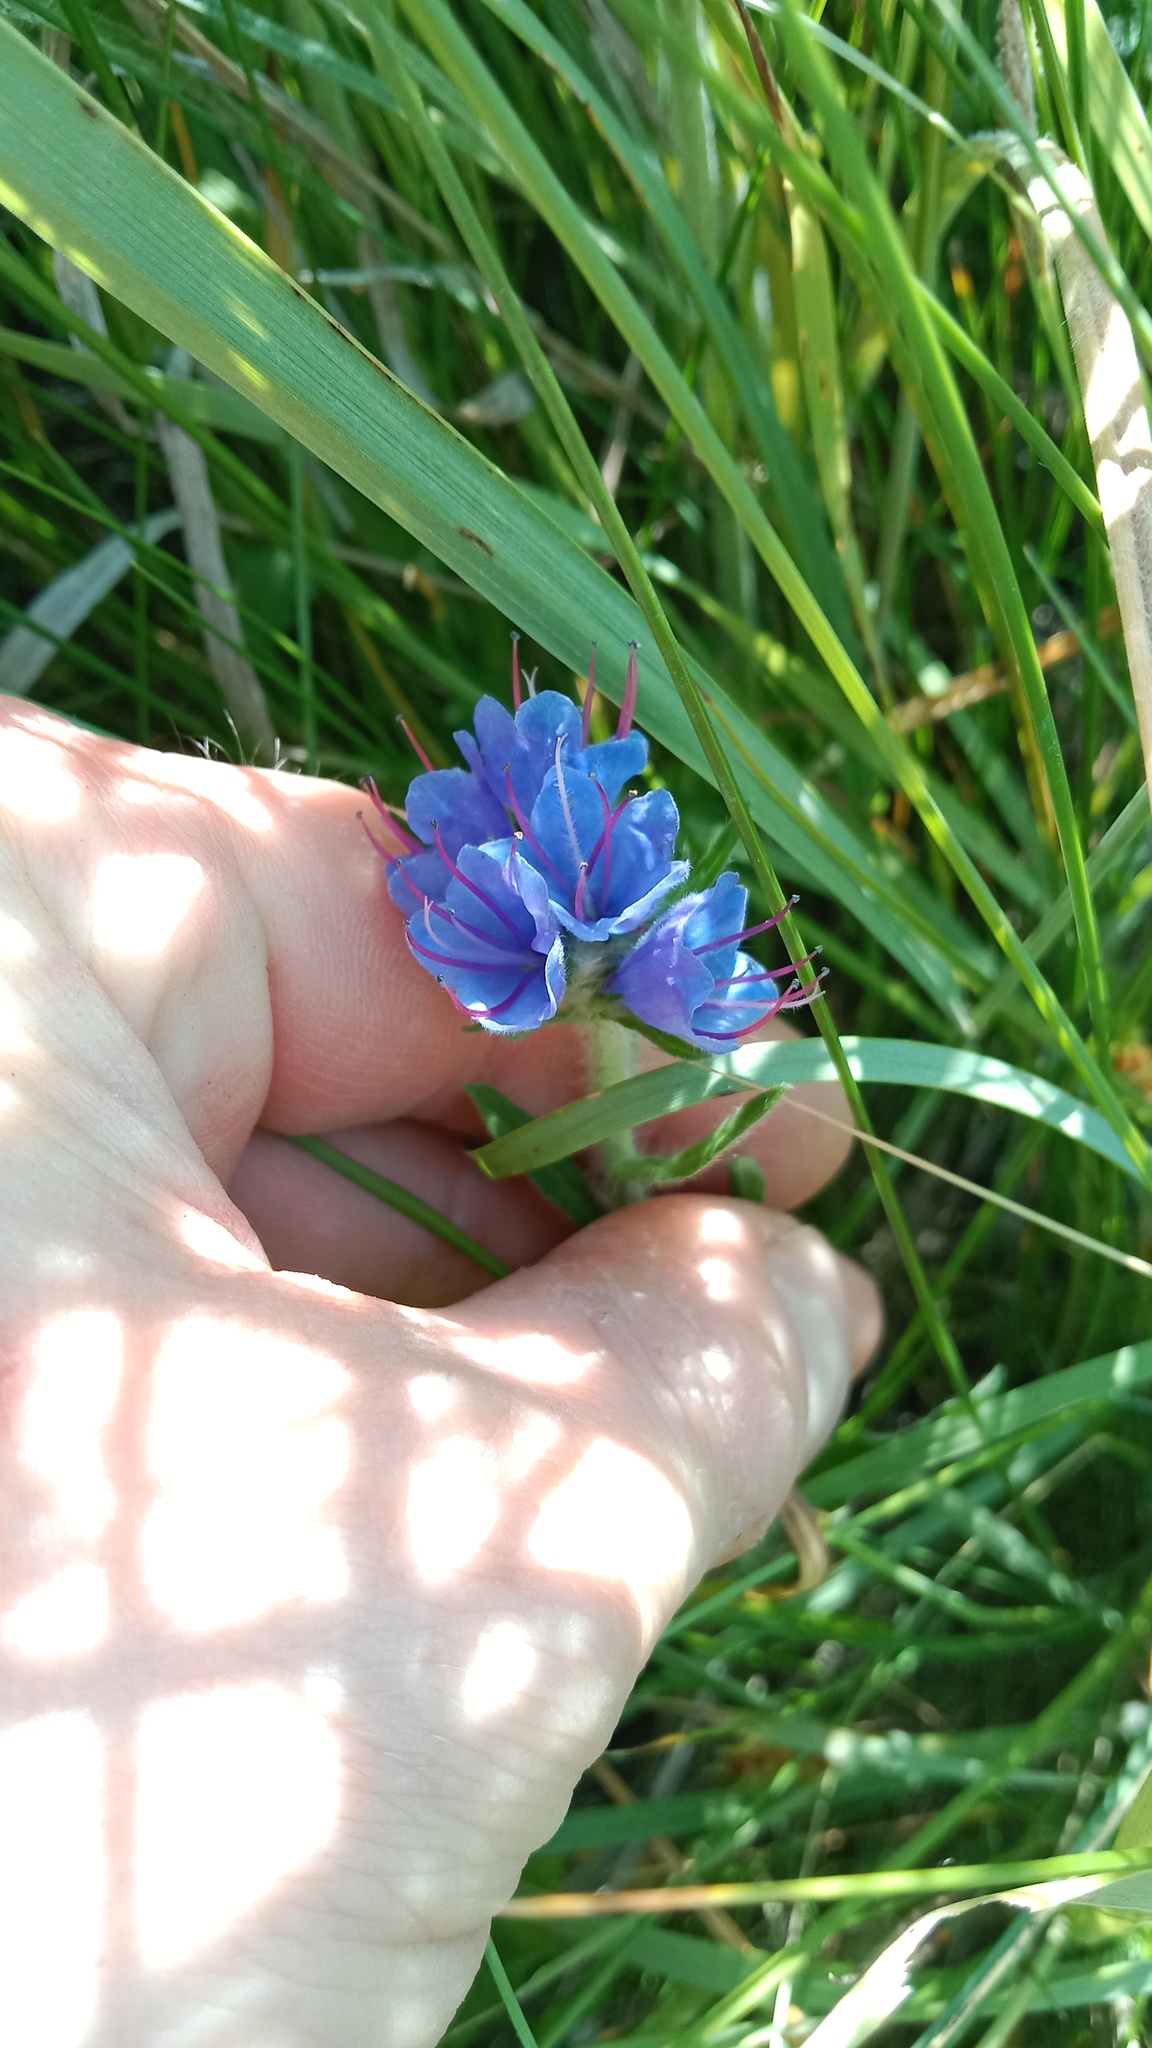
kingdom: Plantae
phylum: Tracheophyta
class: Magnoliopsida
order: Boraginales
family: Boraginaceae
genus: Echium
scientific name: Echium vulgare
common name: Common viper's bugloss
